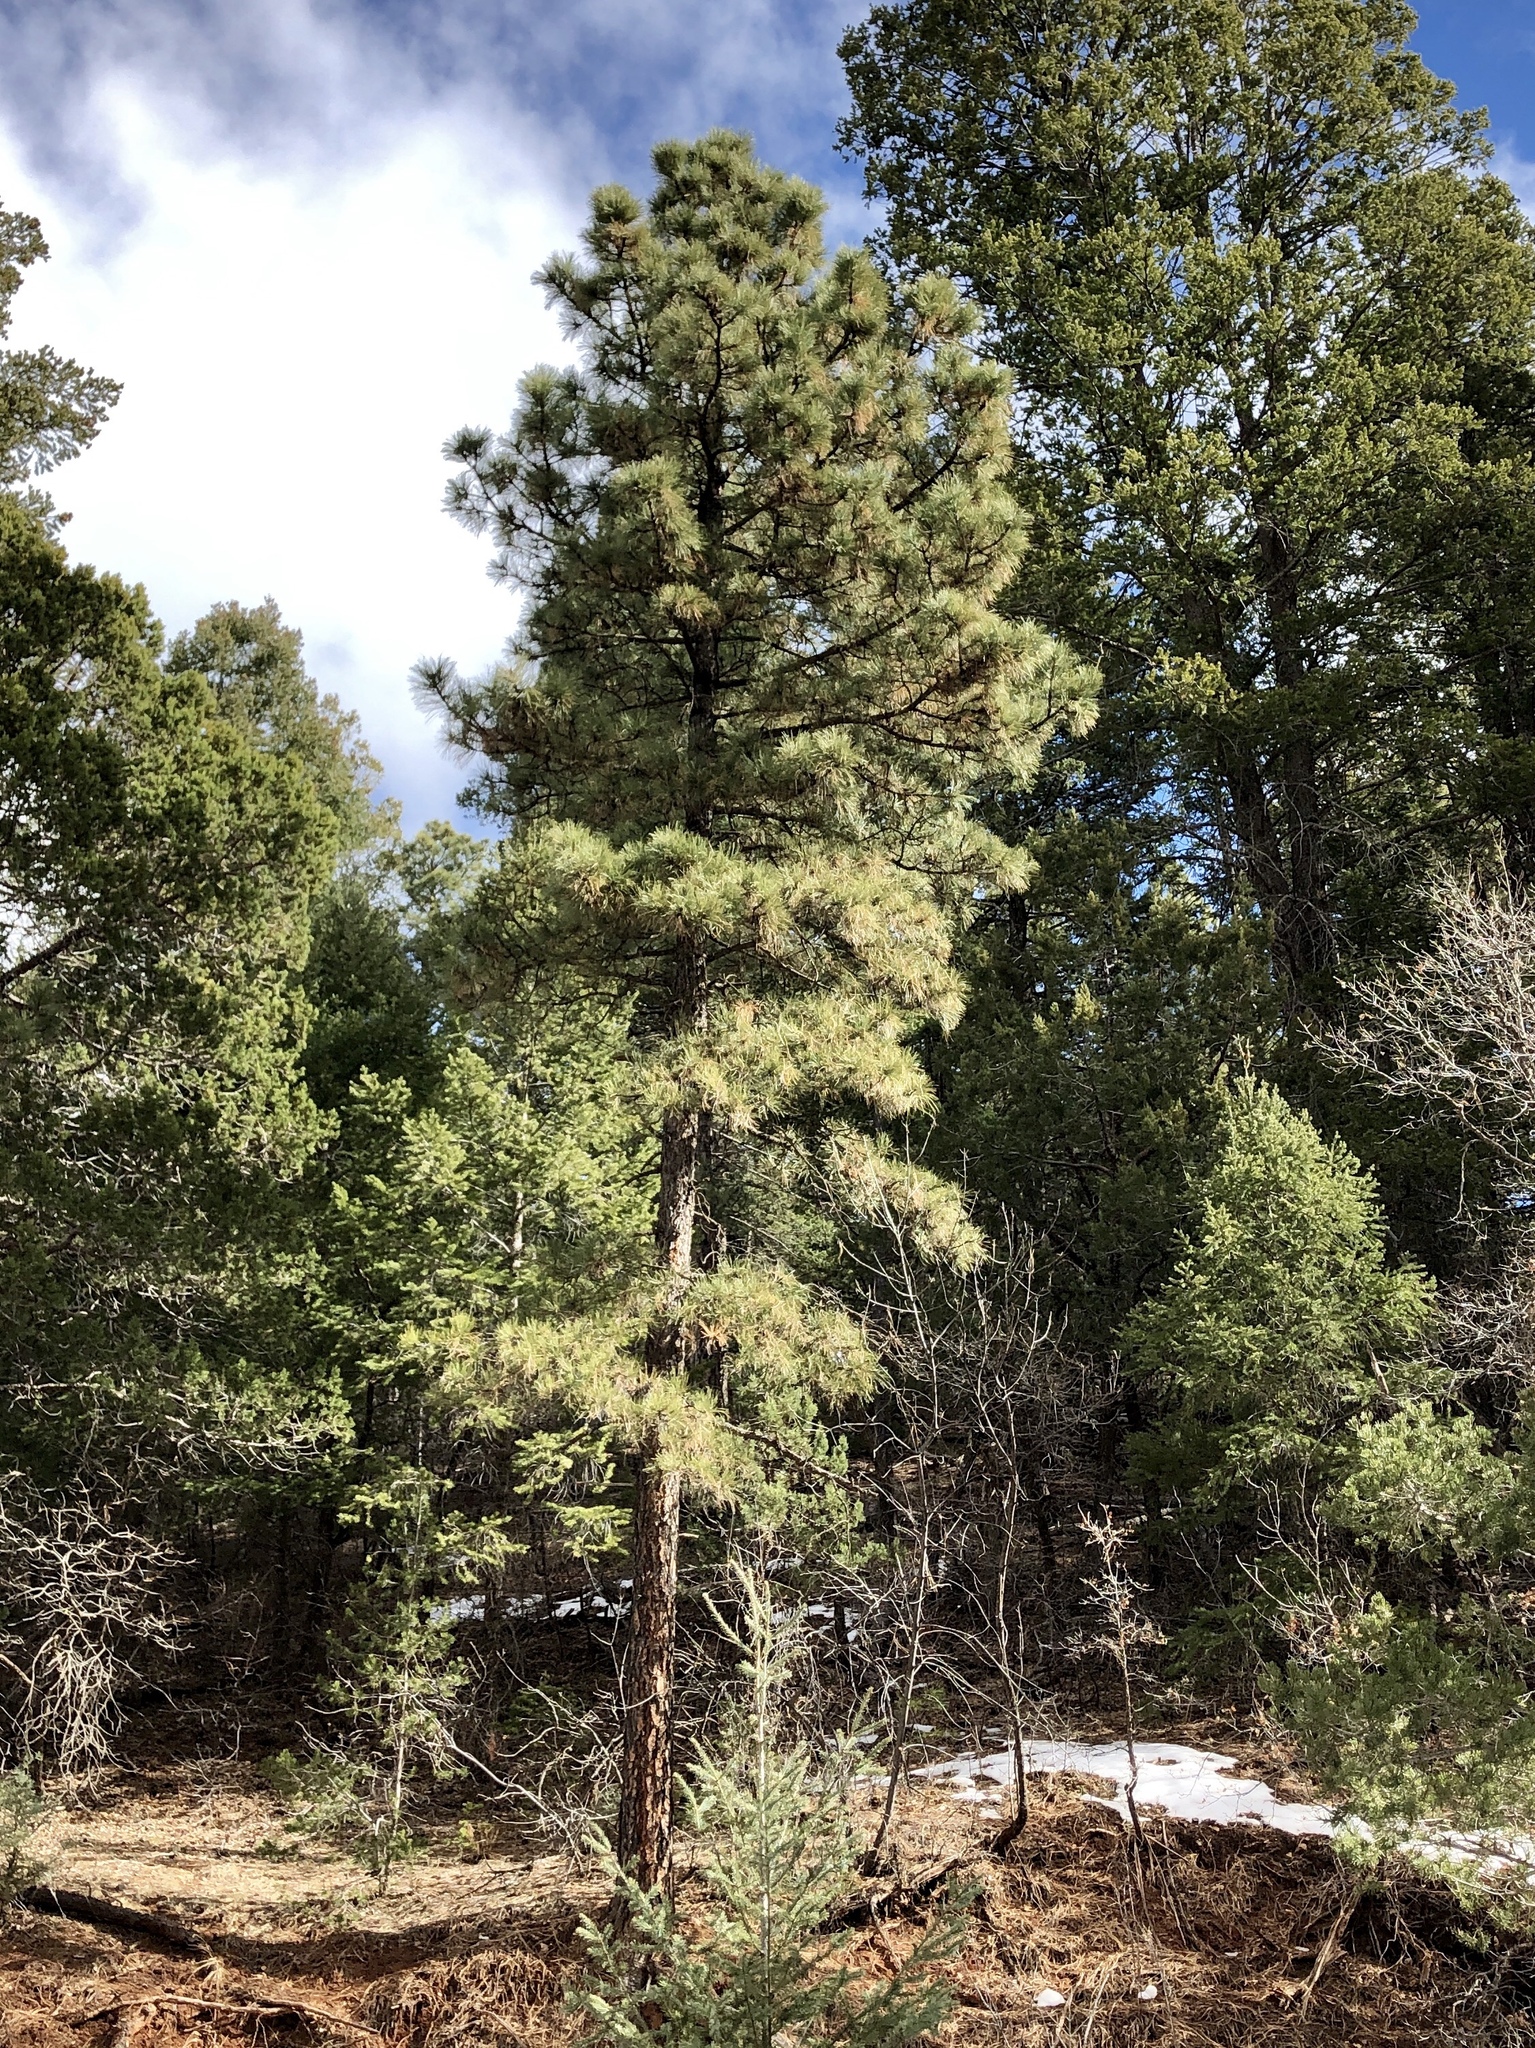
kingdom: Plantae
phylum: Tracheophyta
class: Pinopsida
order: Pinales
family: Pinaceae
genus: Pinus
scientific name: Pinus ponderosa
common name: Western yellow-pine
